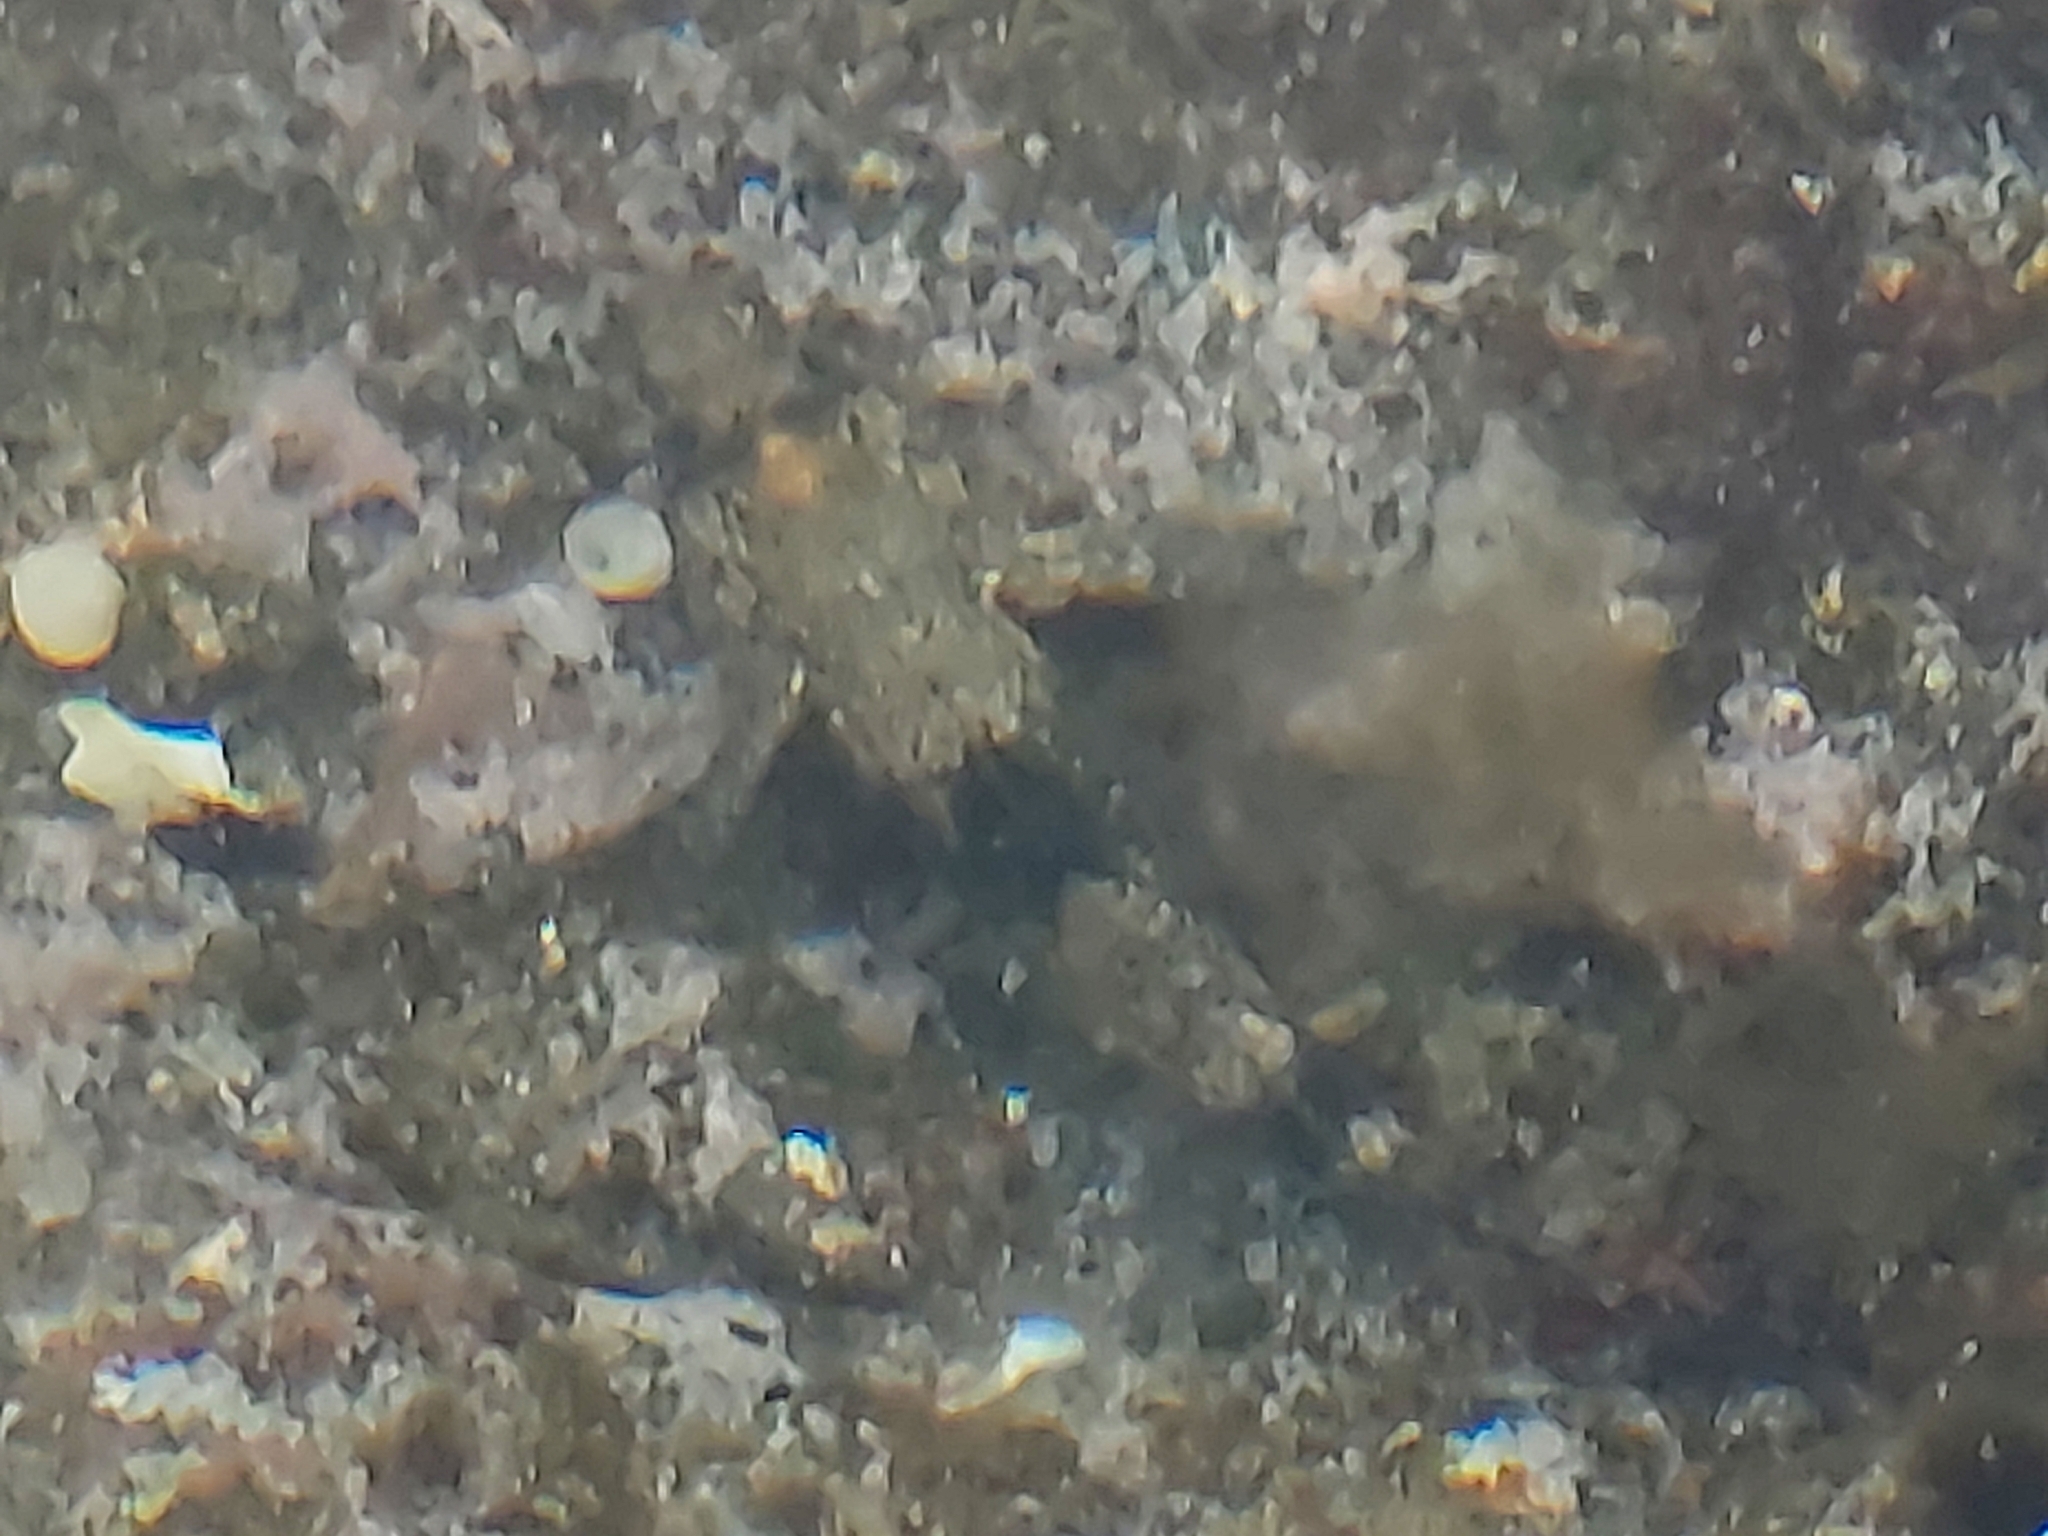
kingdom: Animalia
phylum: Chordata
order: Perciformes
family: Gobiidae
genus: Bathygobius
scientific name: Bathygobius
